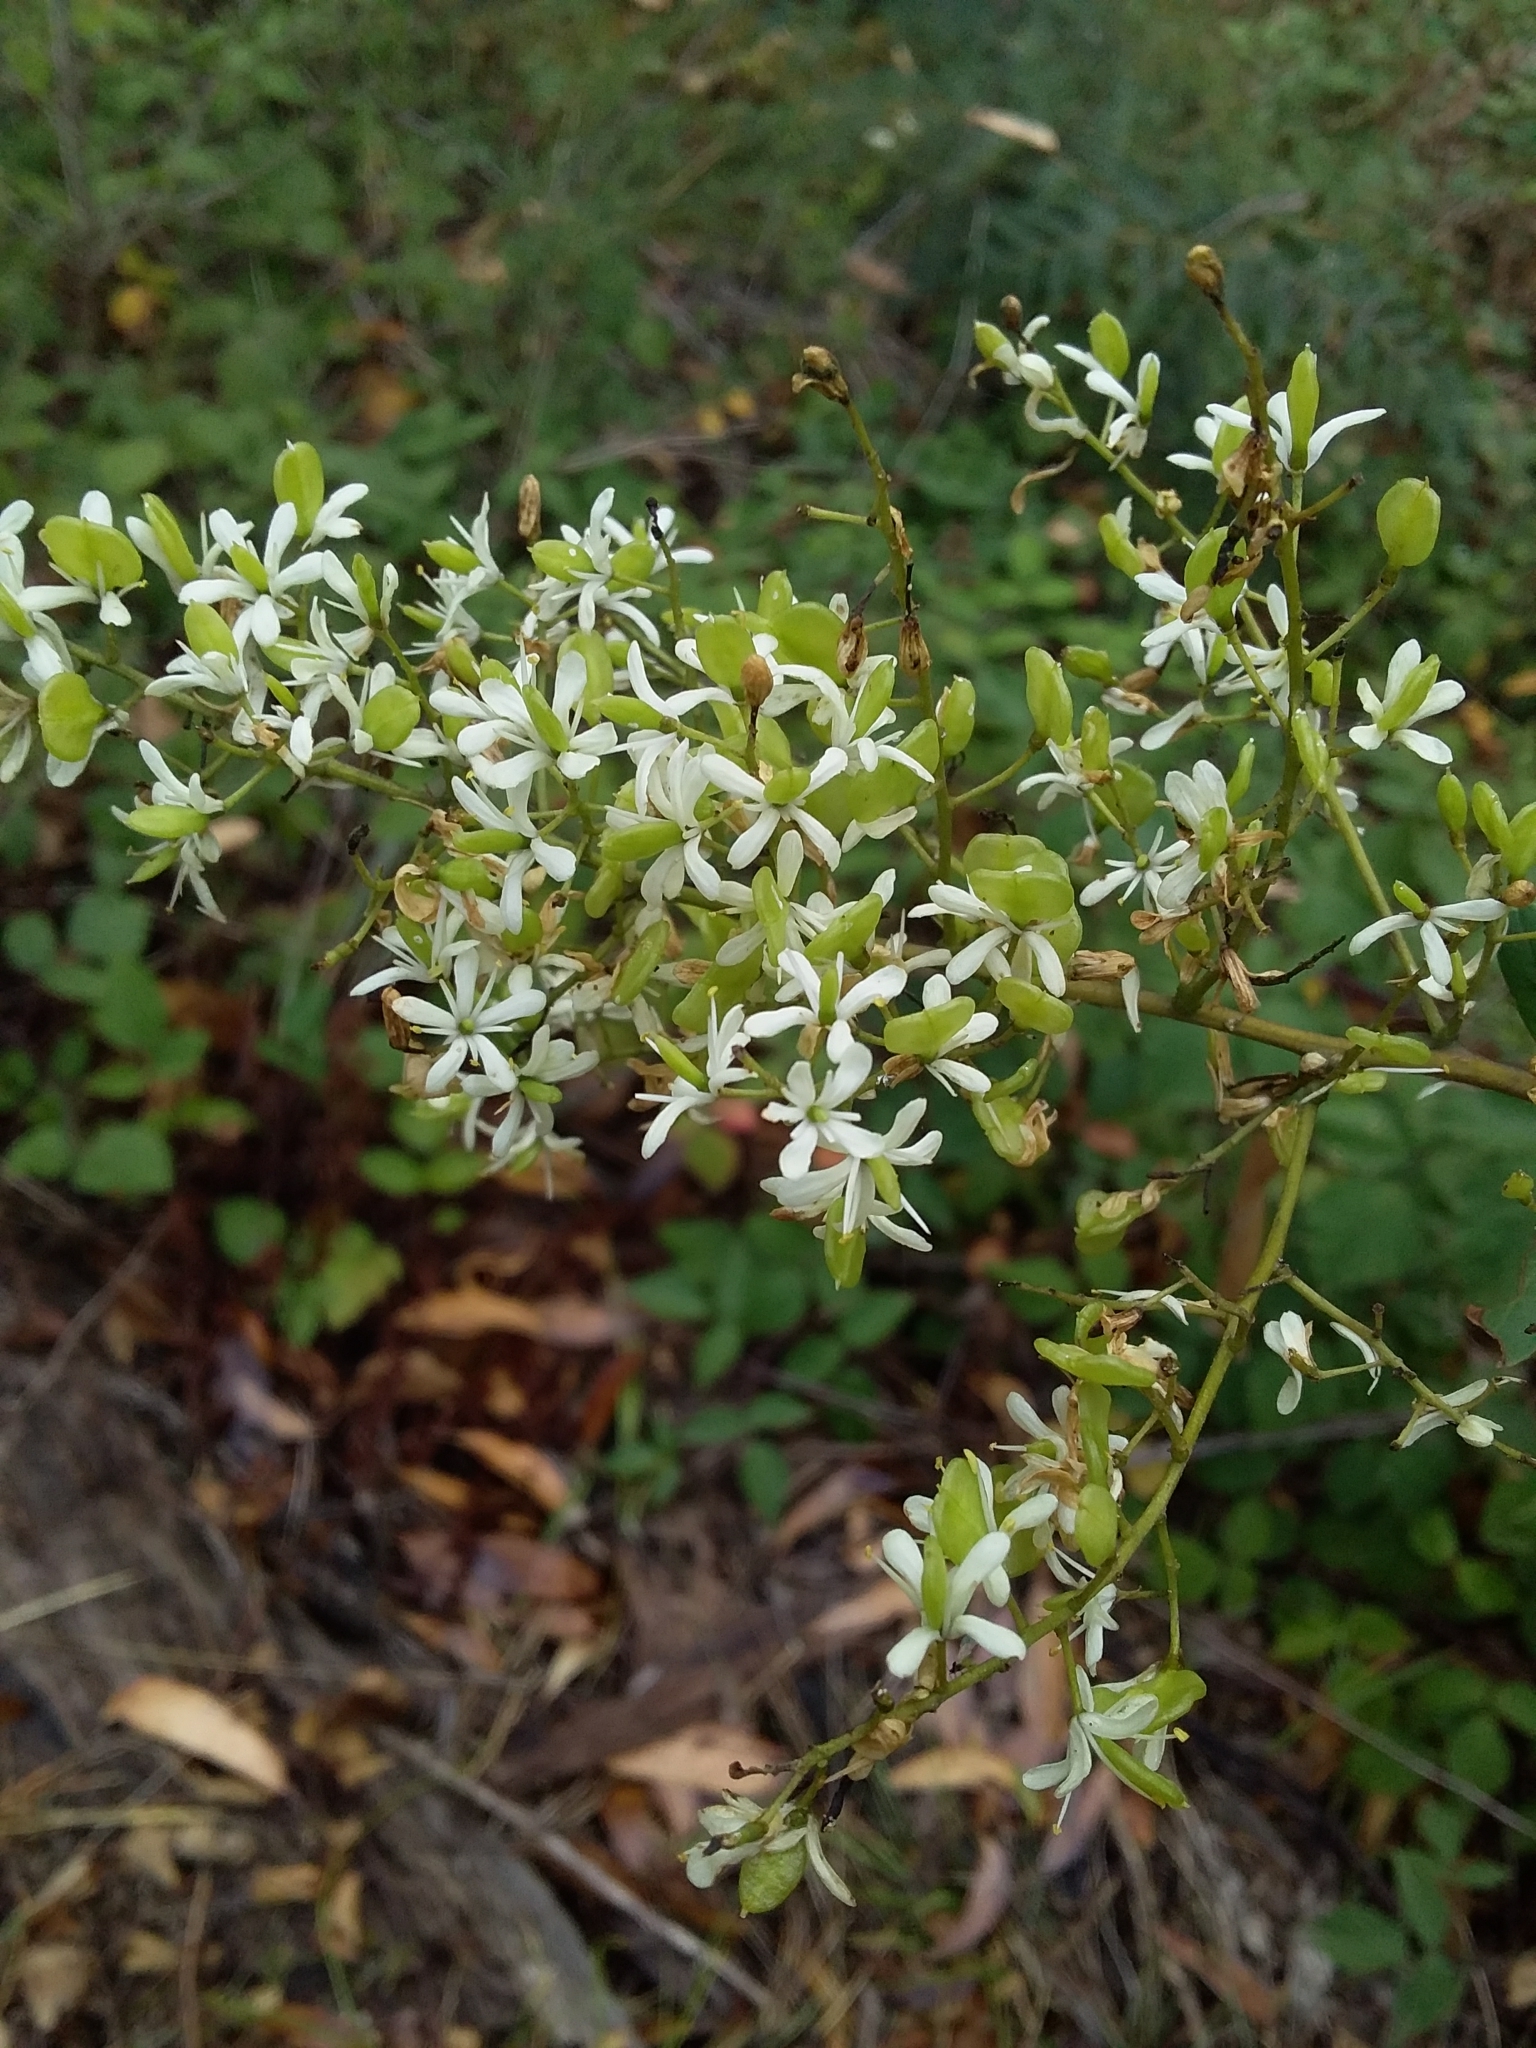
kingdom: Plantae
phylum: Tracheophyta
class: Magnoliopsida
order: Apiales
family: Pittosporaceae
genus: Bursaria
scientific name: Bursaria spinosa
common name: Australian blackthorn
